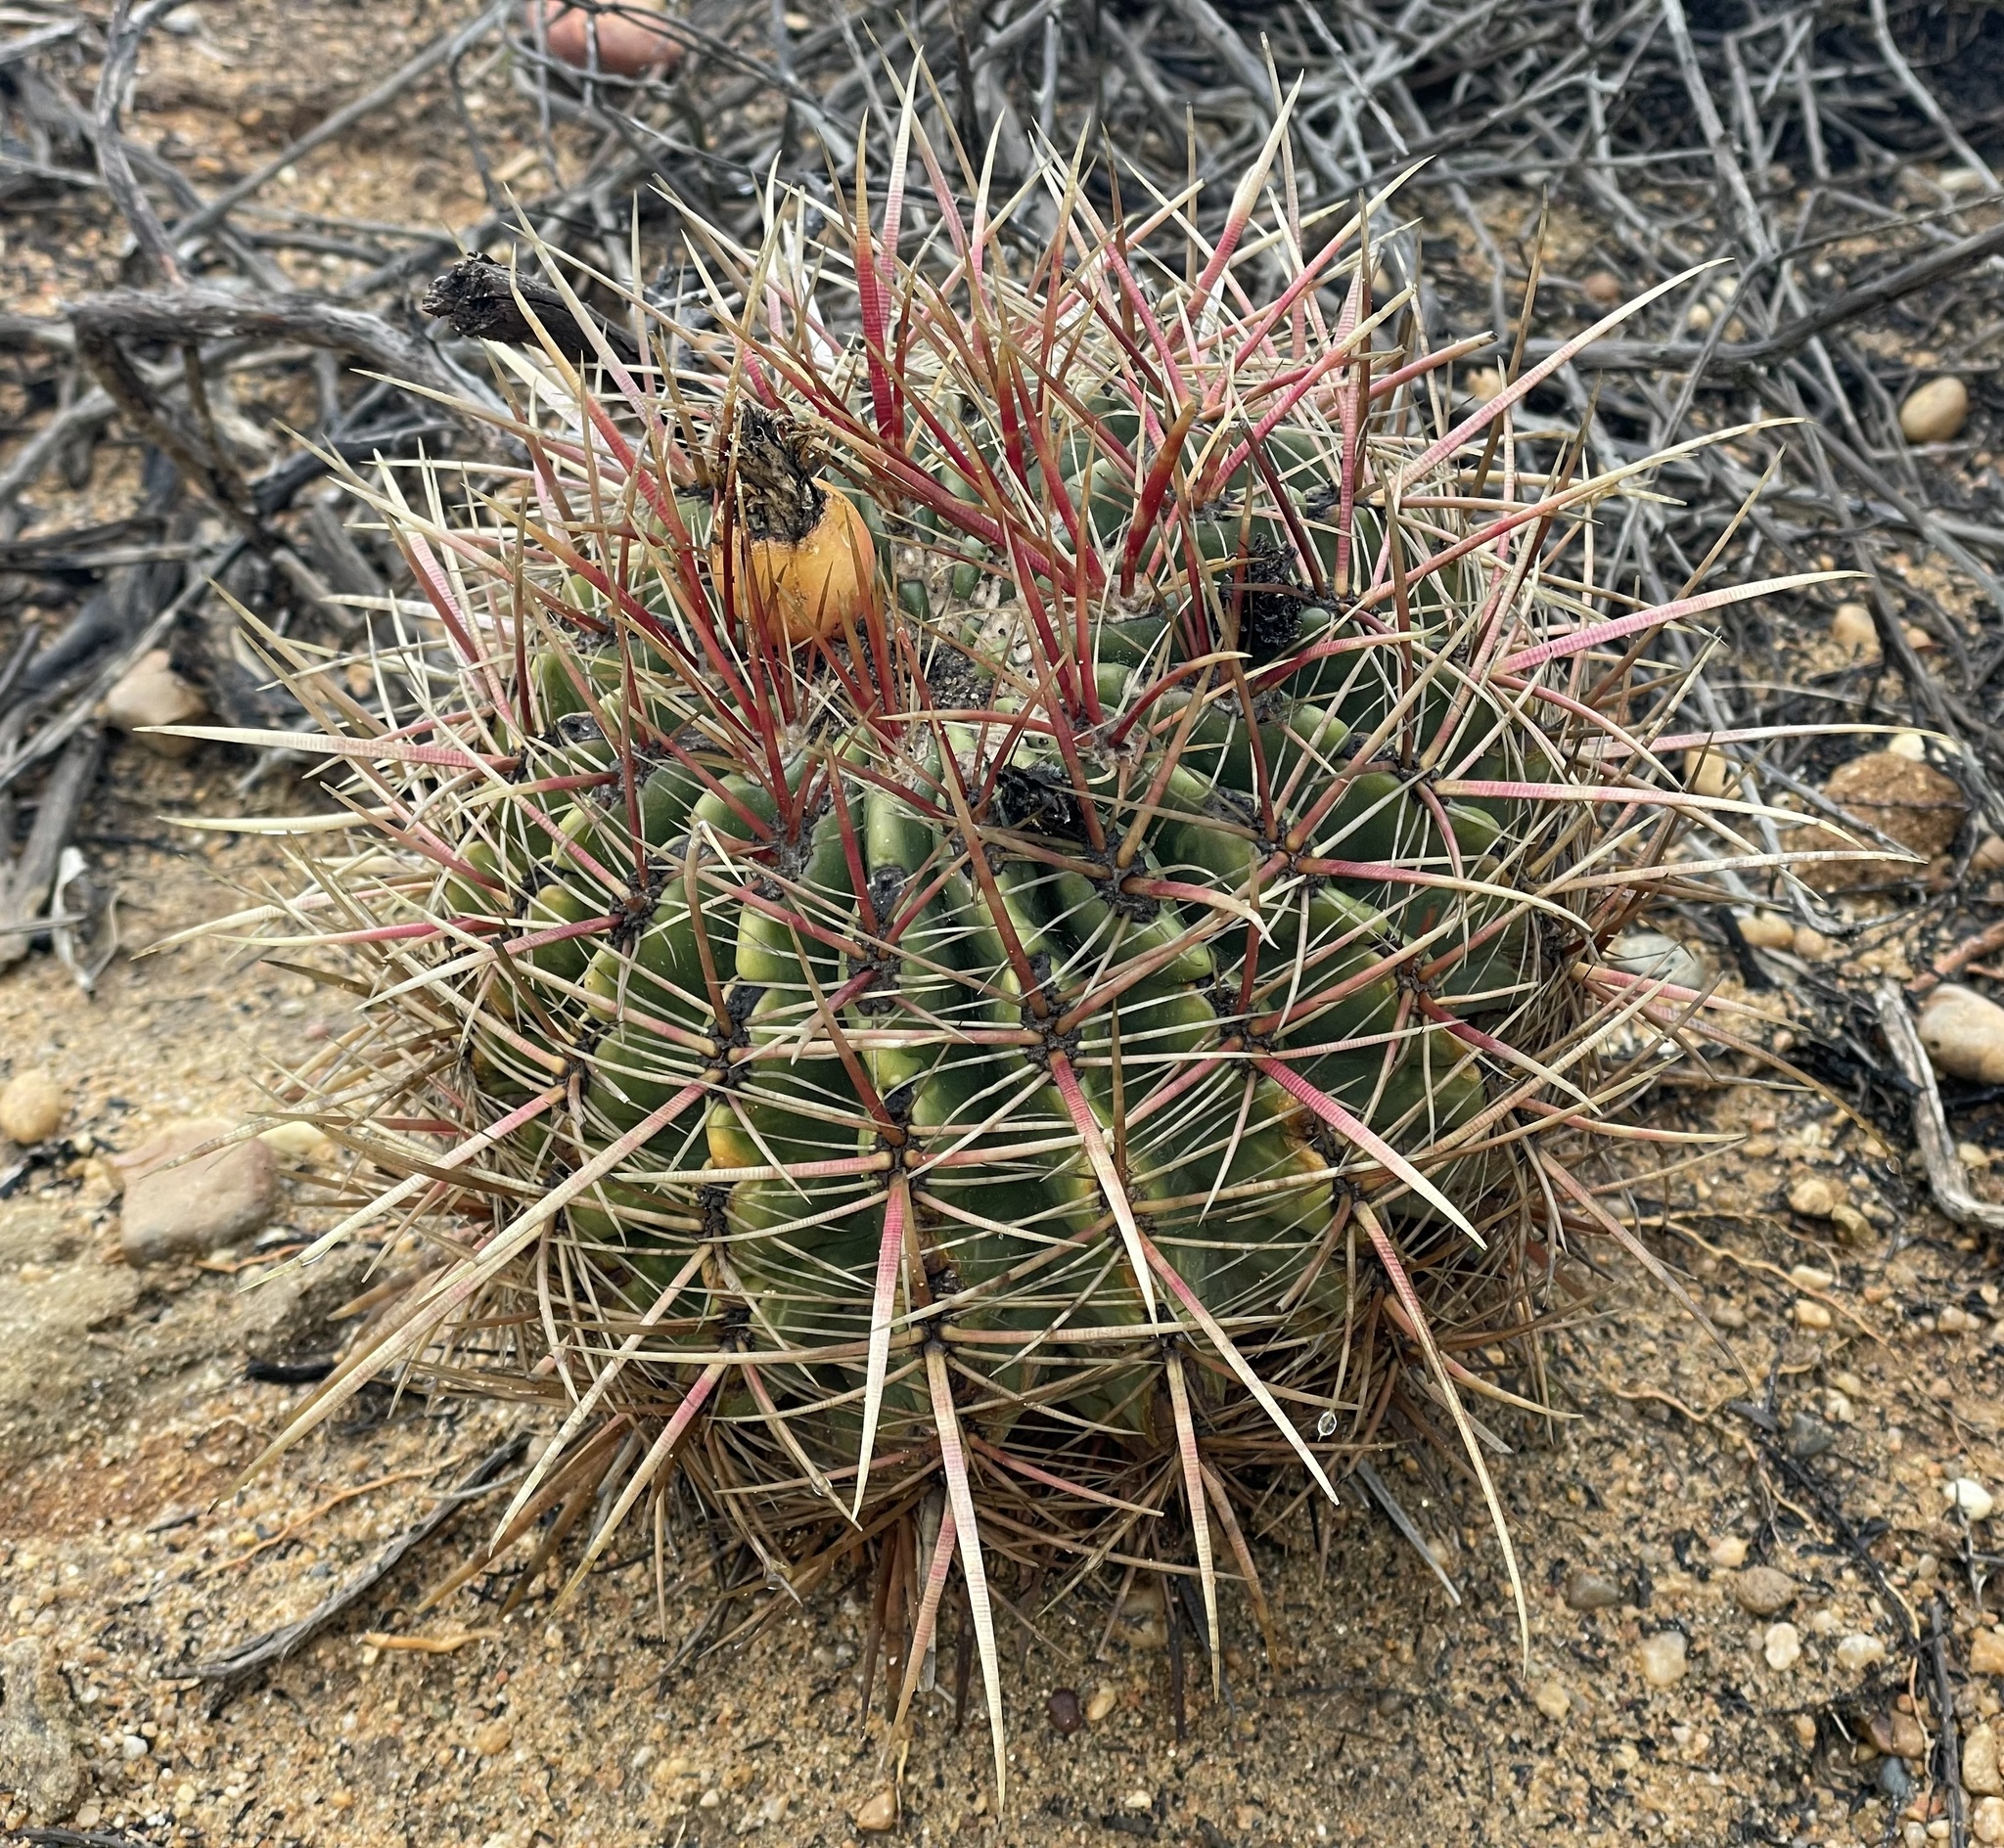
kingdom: Plantae
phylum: Tracheophyta
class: Magnoliopsida
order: Caryophyllales
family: Cactaceae
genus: Ferocactus
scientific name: Ferocactus viridescens
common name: San diego barrel cactus
